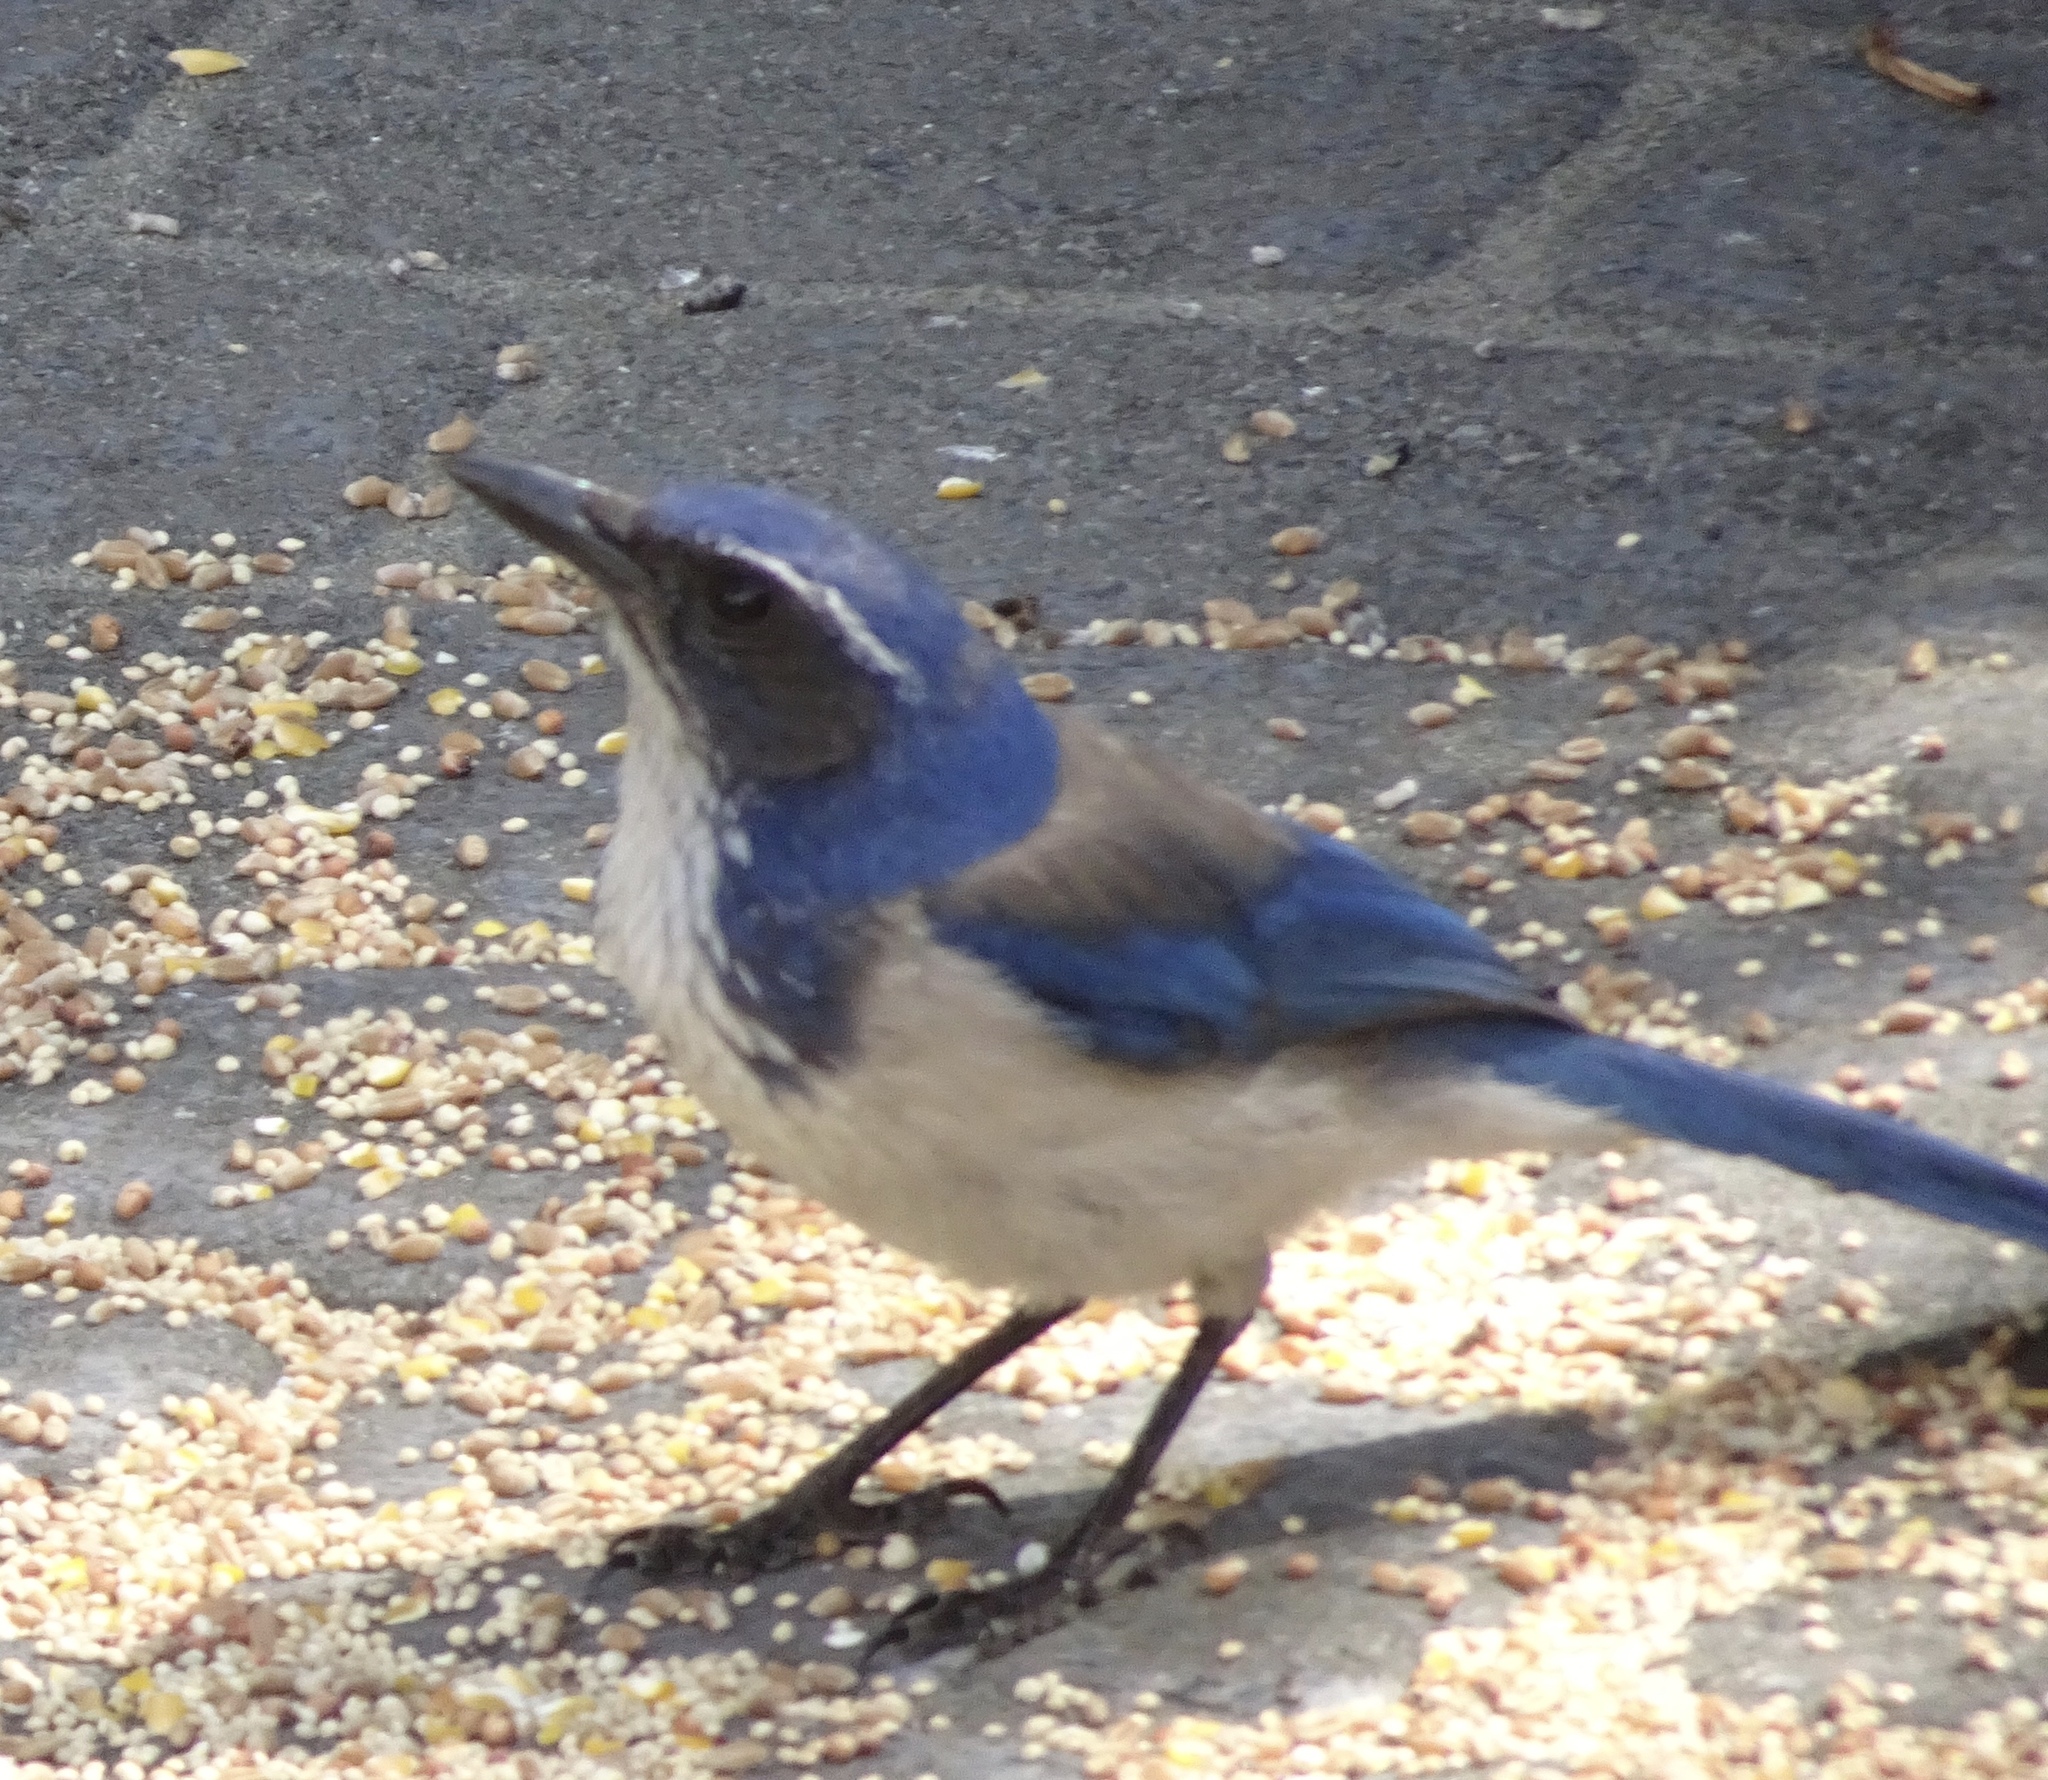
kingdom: Animalia
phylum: Chordata
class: Aves
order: Passeriformes
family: Corvidae
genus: Aphelocoma
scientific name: Aphelocoma californica
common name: California scrub-jay
